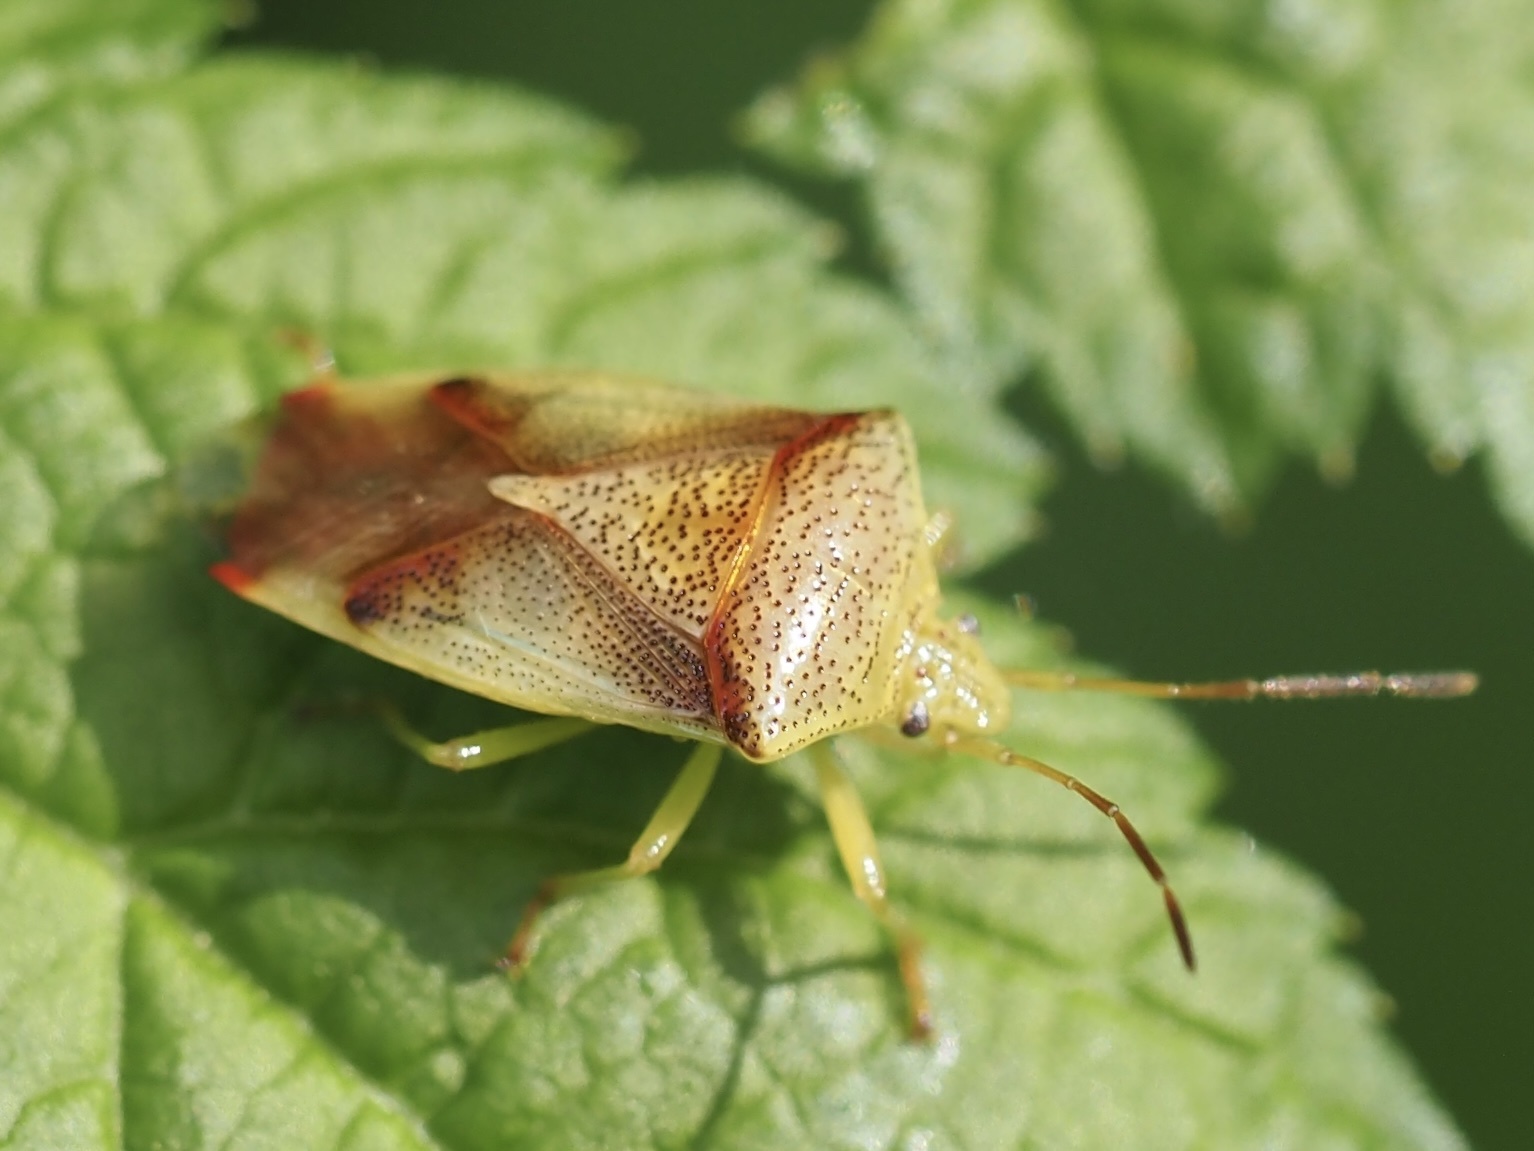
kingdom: Animalia
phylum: Arthropoda
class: Insecta
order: Hemiptera
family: Acanthosomatidae
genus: Elasmostethus
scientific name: Elasmostethus cruciatus
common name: Red-cross shield bug
